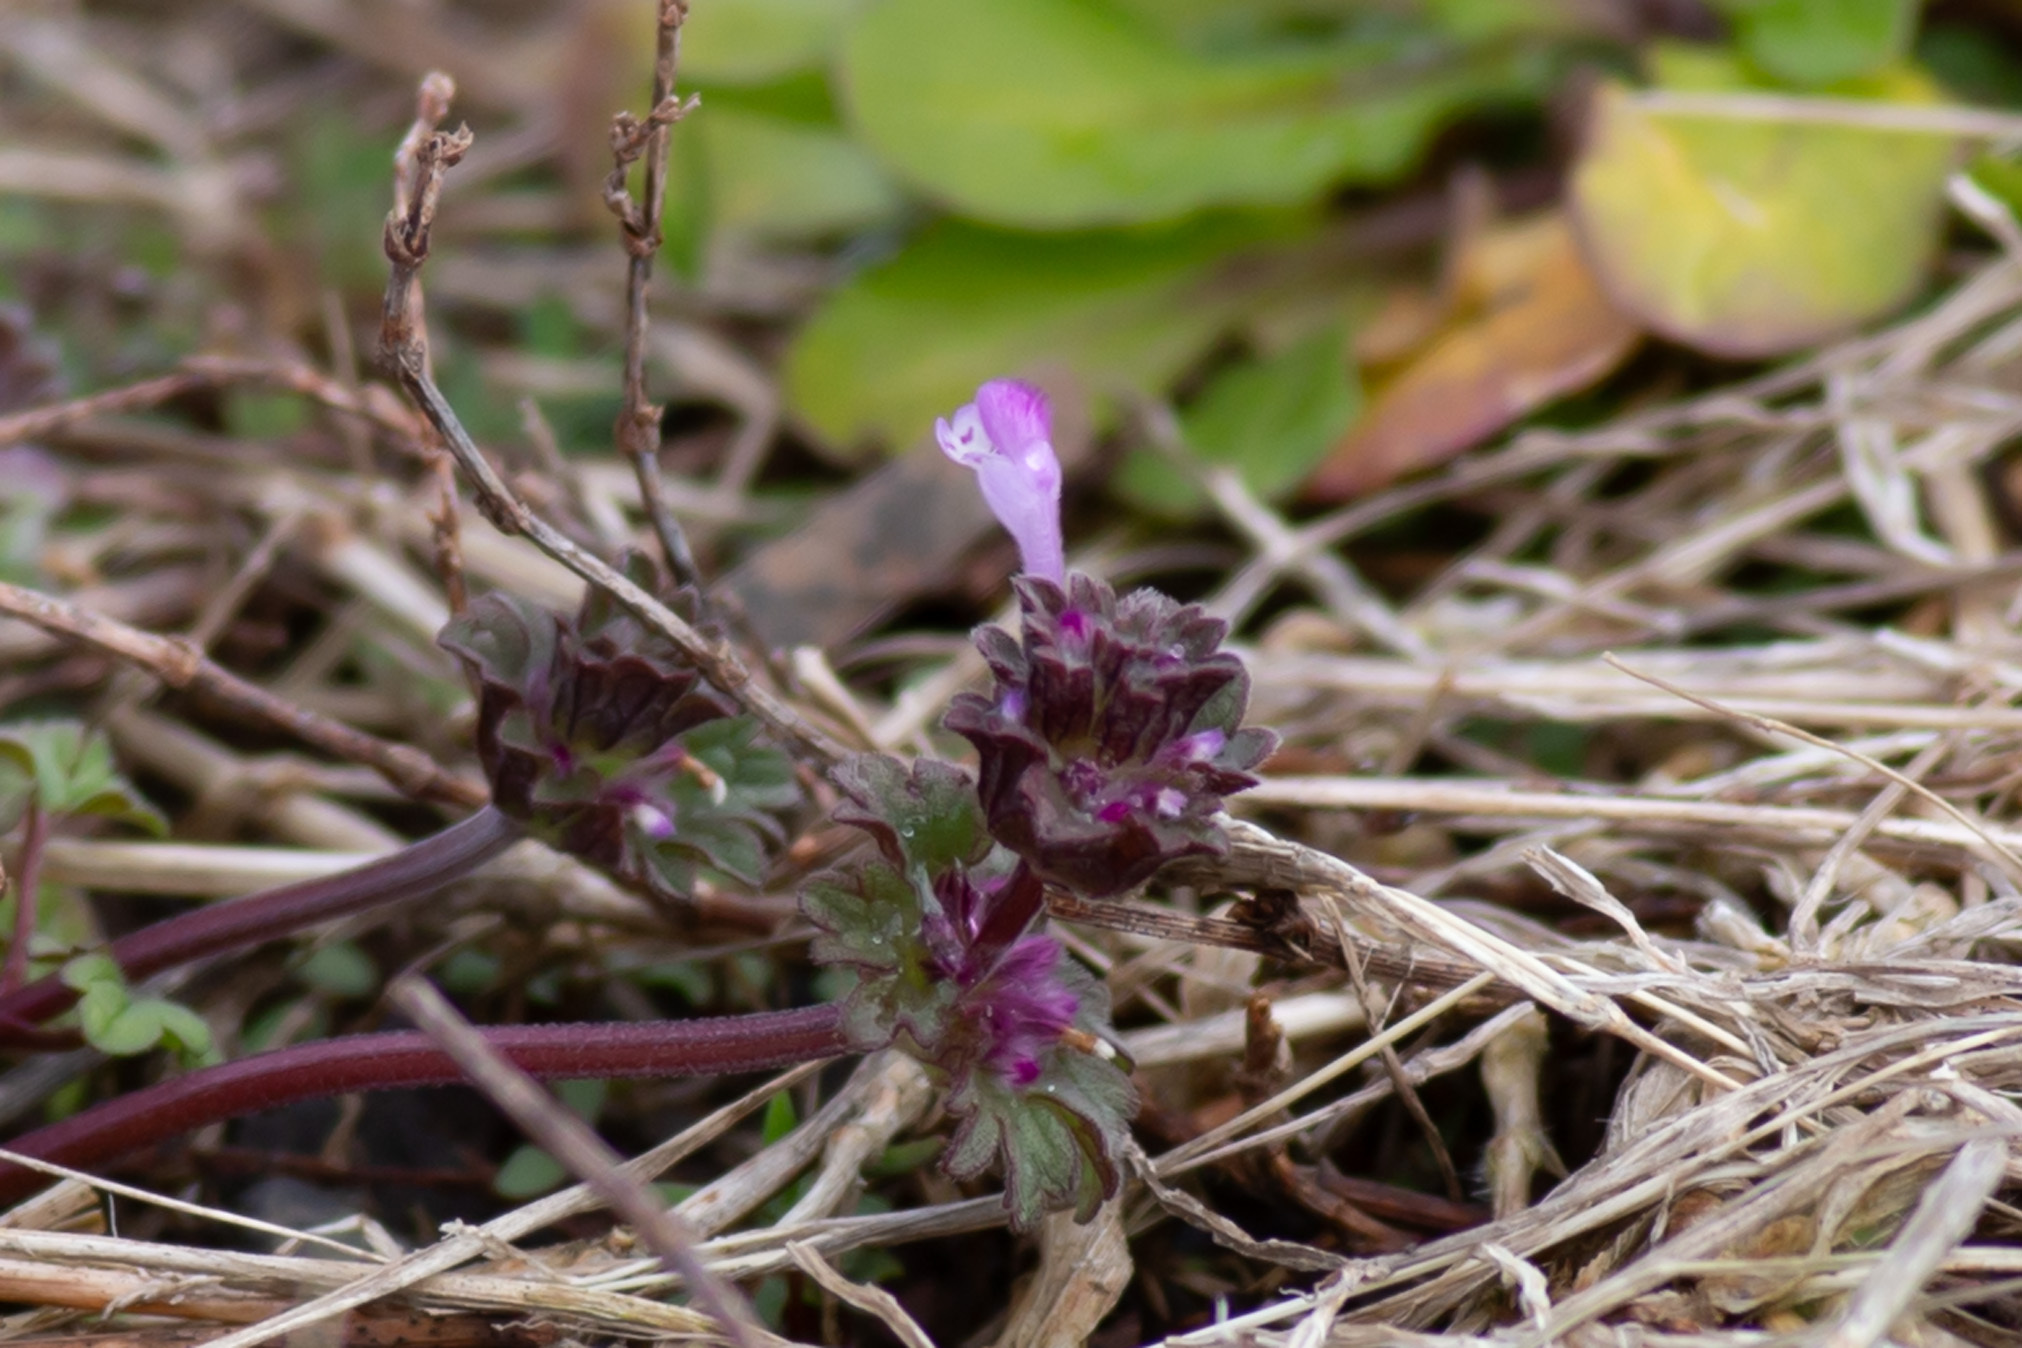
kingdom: Plantae
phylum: Tracheophyta
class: Magnoliopsida
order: Lamiales
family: Lamiaceae
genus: Lamium
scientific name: Lamium amplexicaule
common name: Henbit dead-nettle
